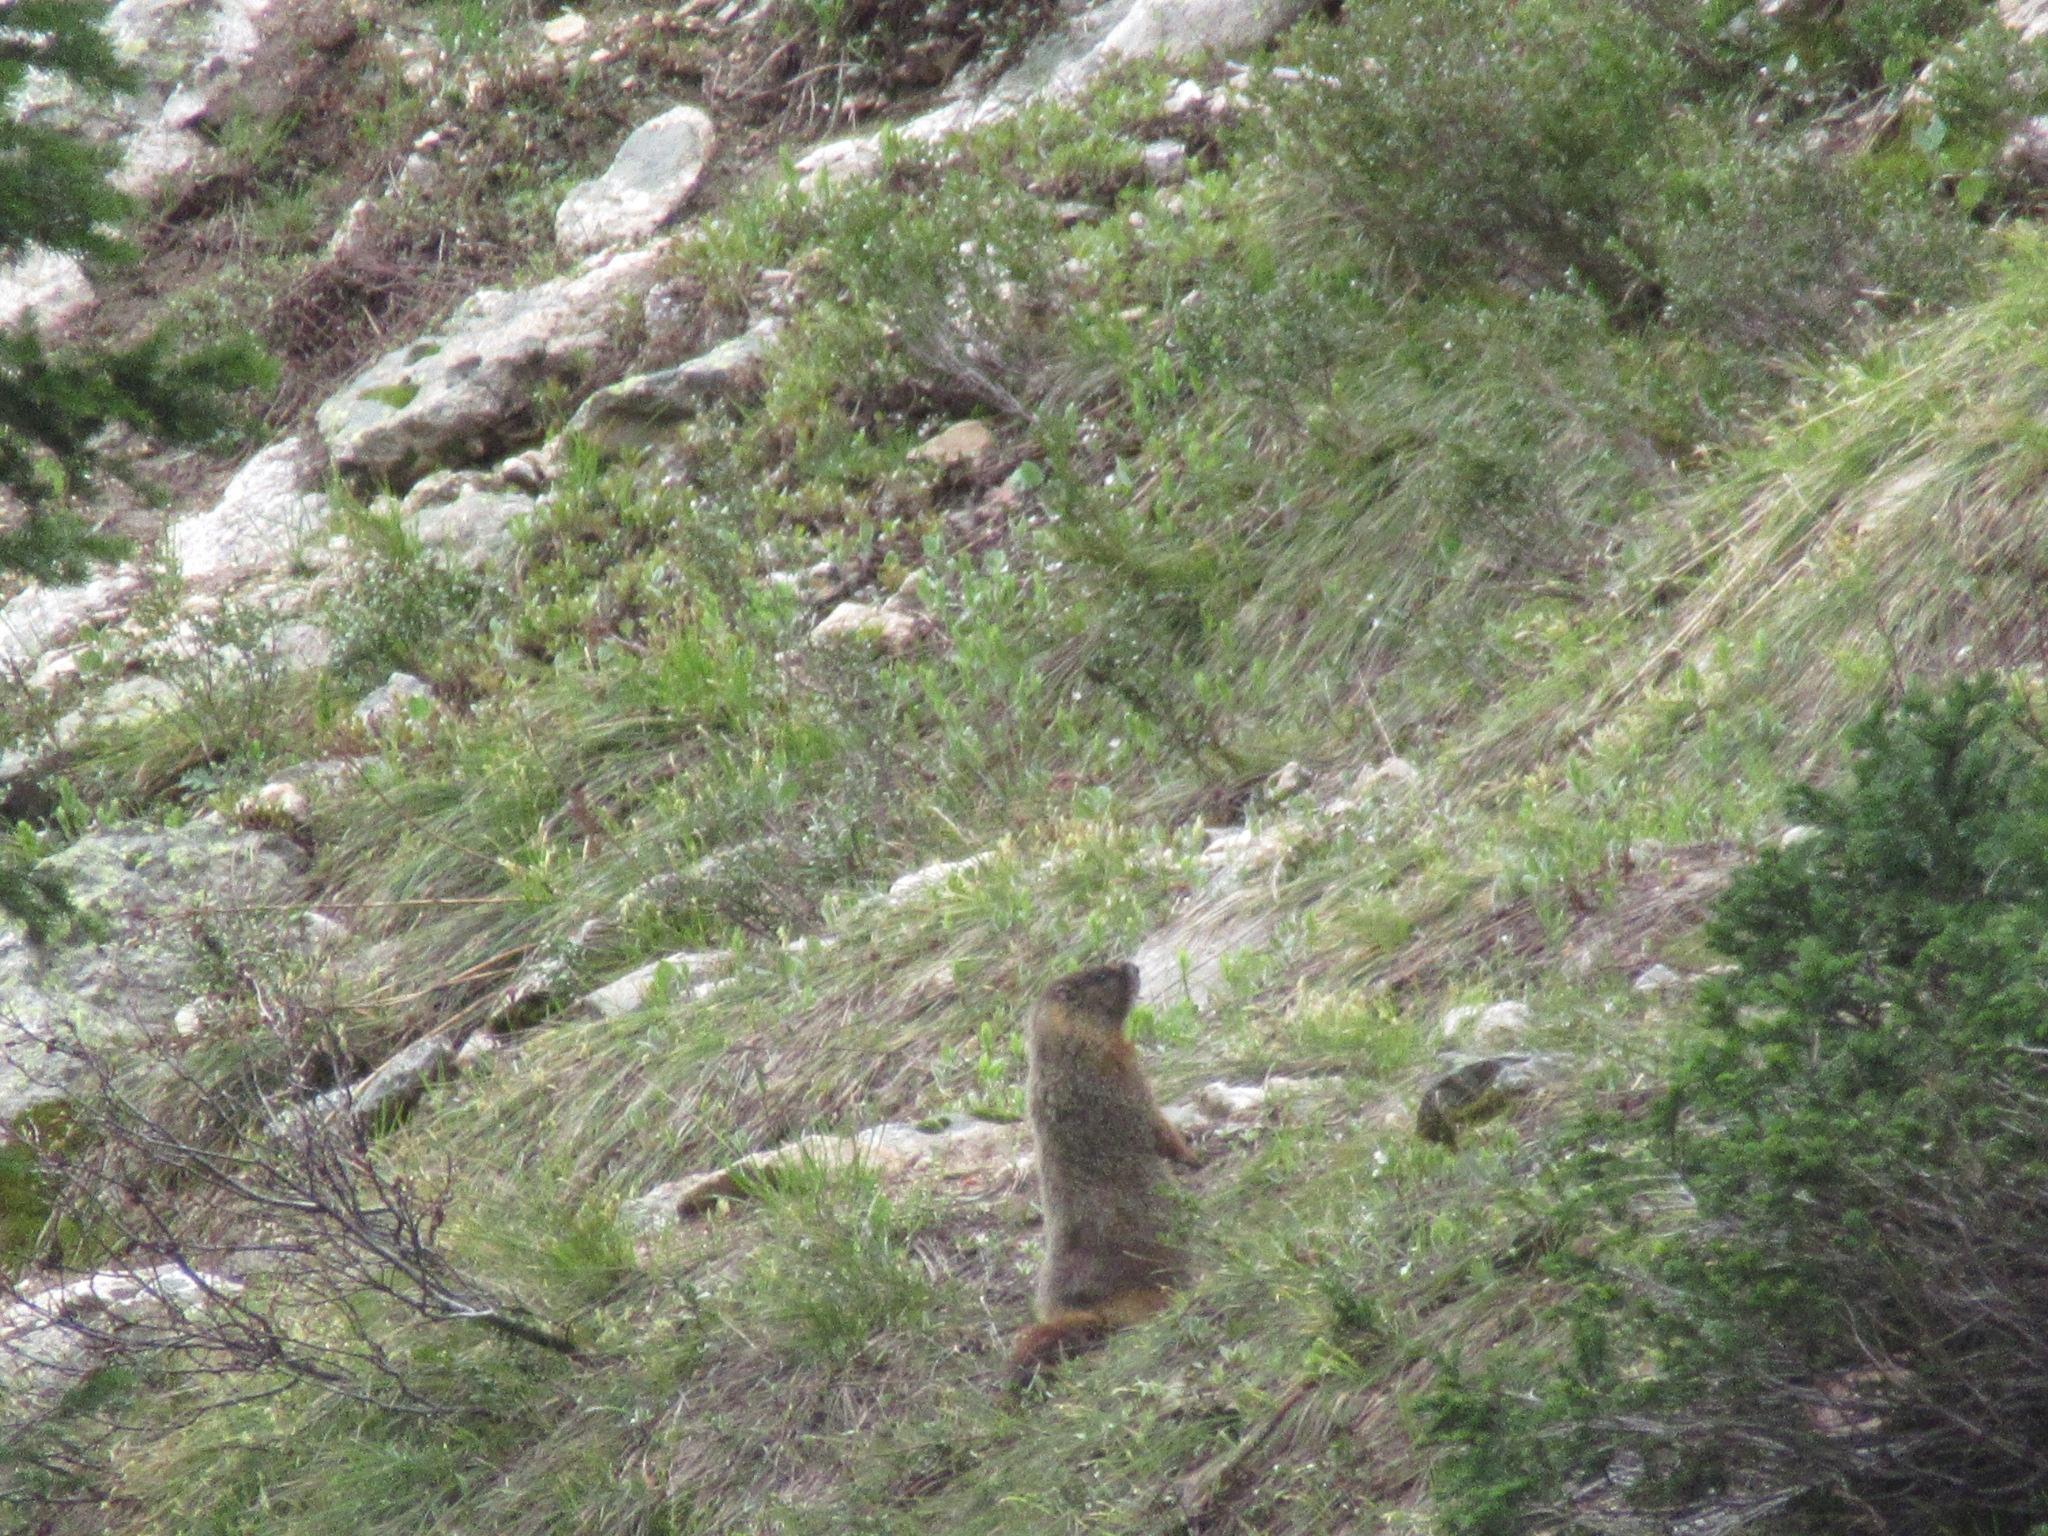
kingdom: Animalia
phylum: Chordata
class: Mammalia
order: Rodentia
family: Sciuridae
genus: Marmota
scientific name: Marmota flaviventris
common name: Yellow-bellied marmot
